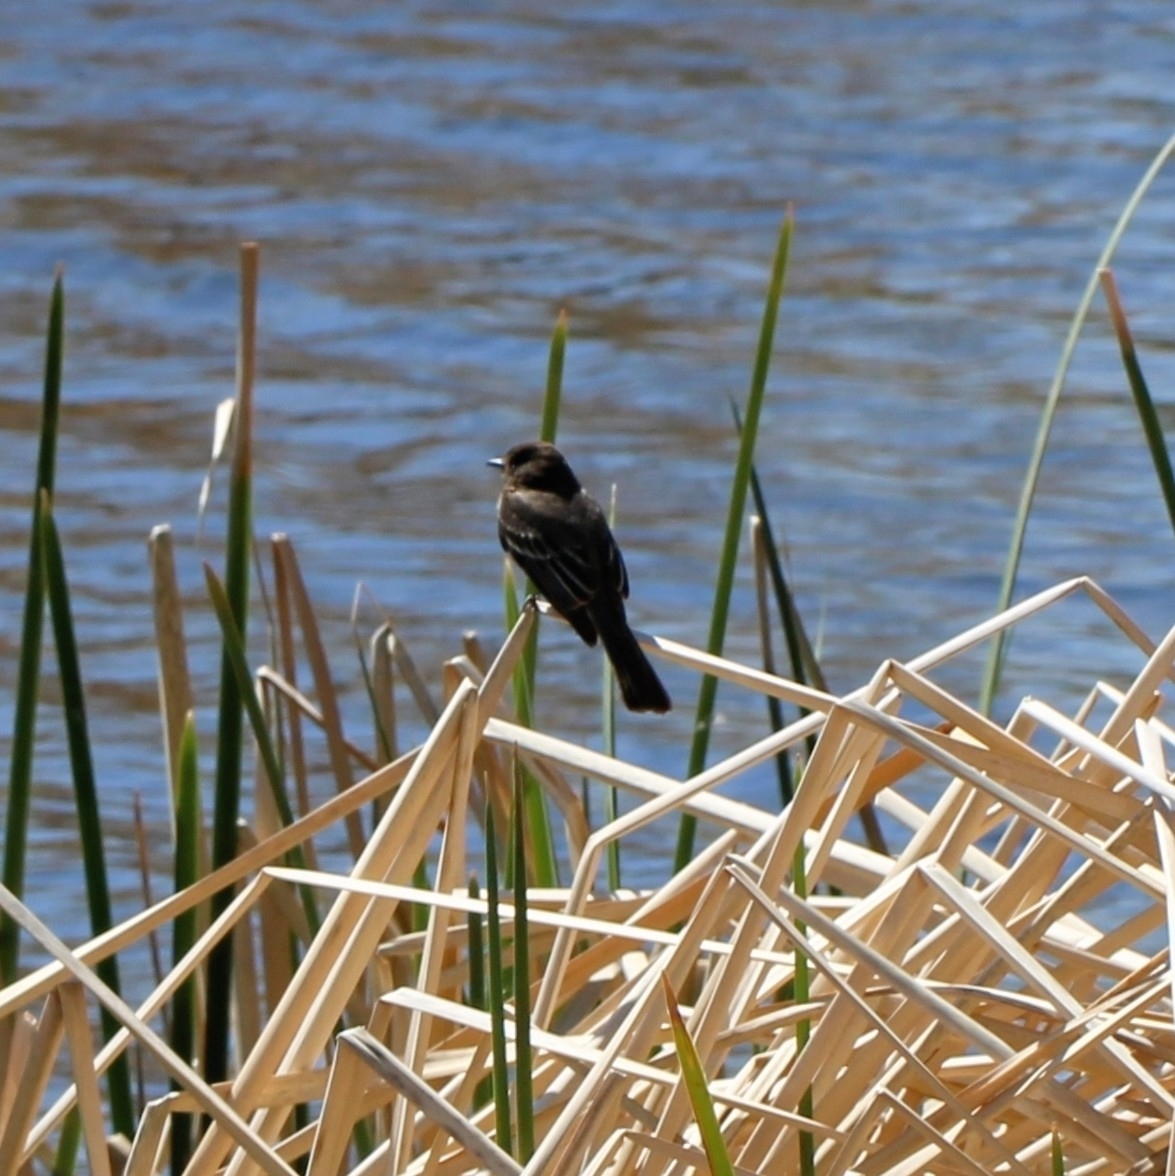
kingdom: Animalia
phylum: Chordata
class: Aves
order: Passeriformes
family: Tyrannidae
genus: Sayornis
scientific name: Sayornis nigricans
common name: Black phoebe
